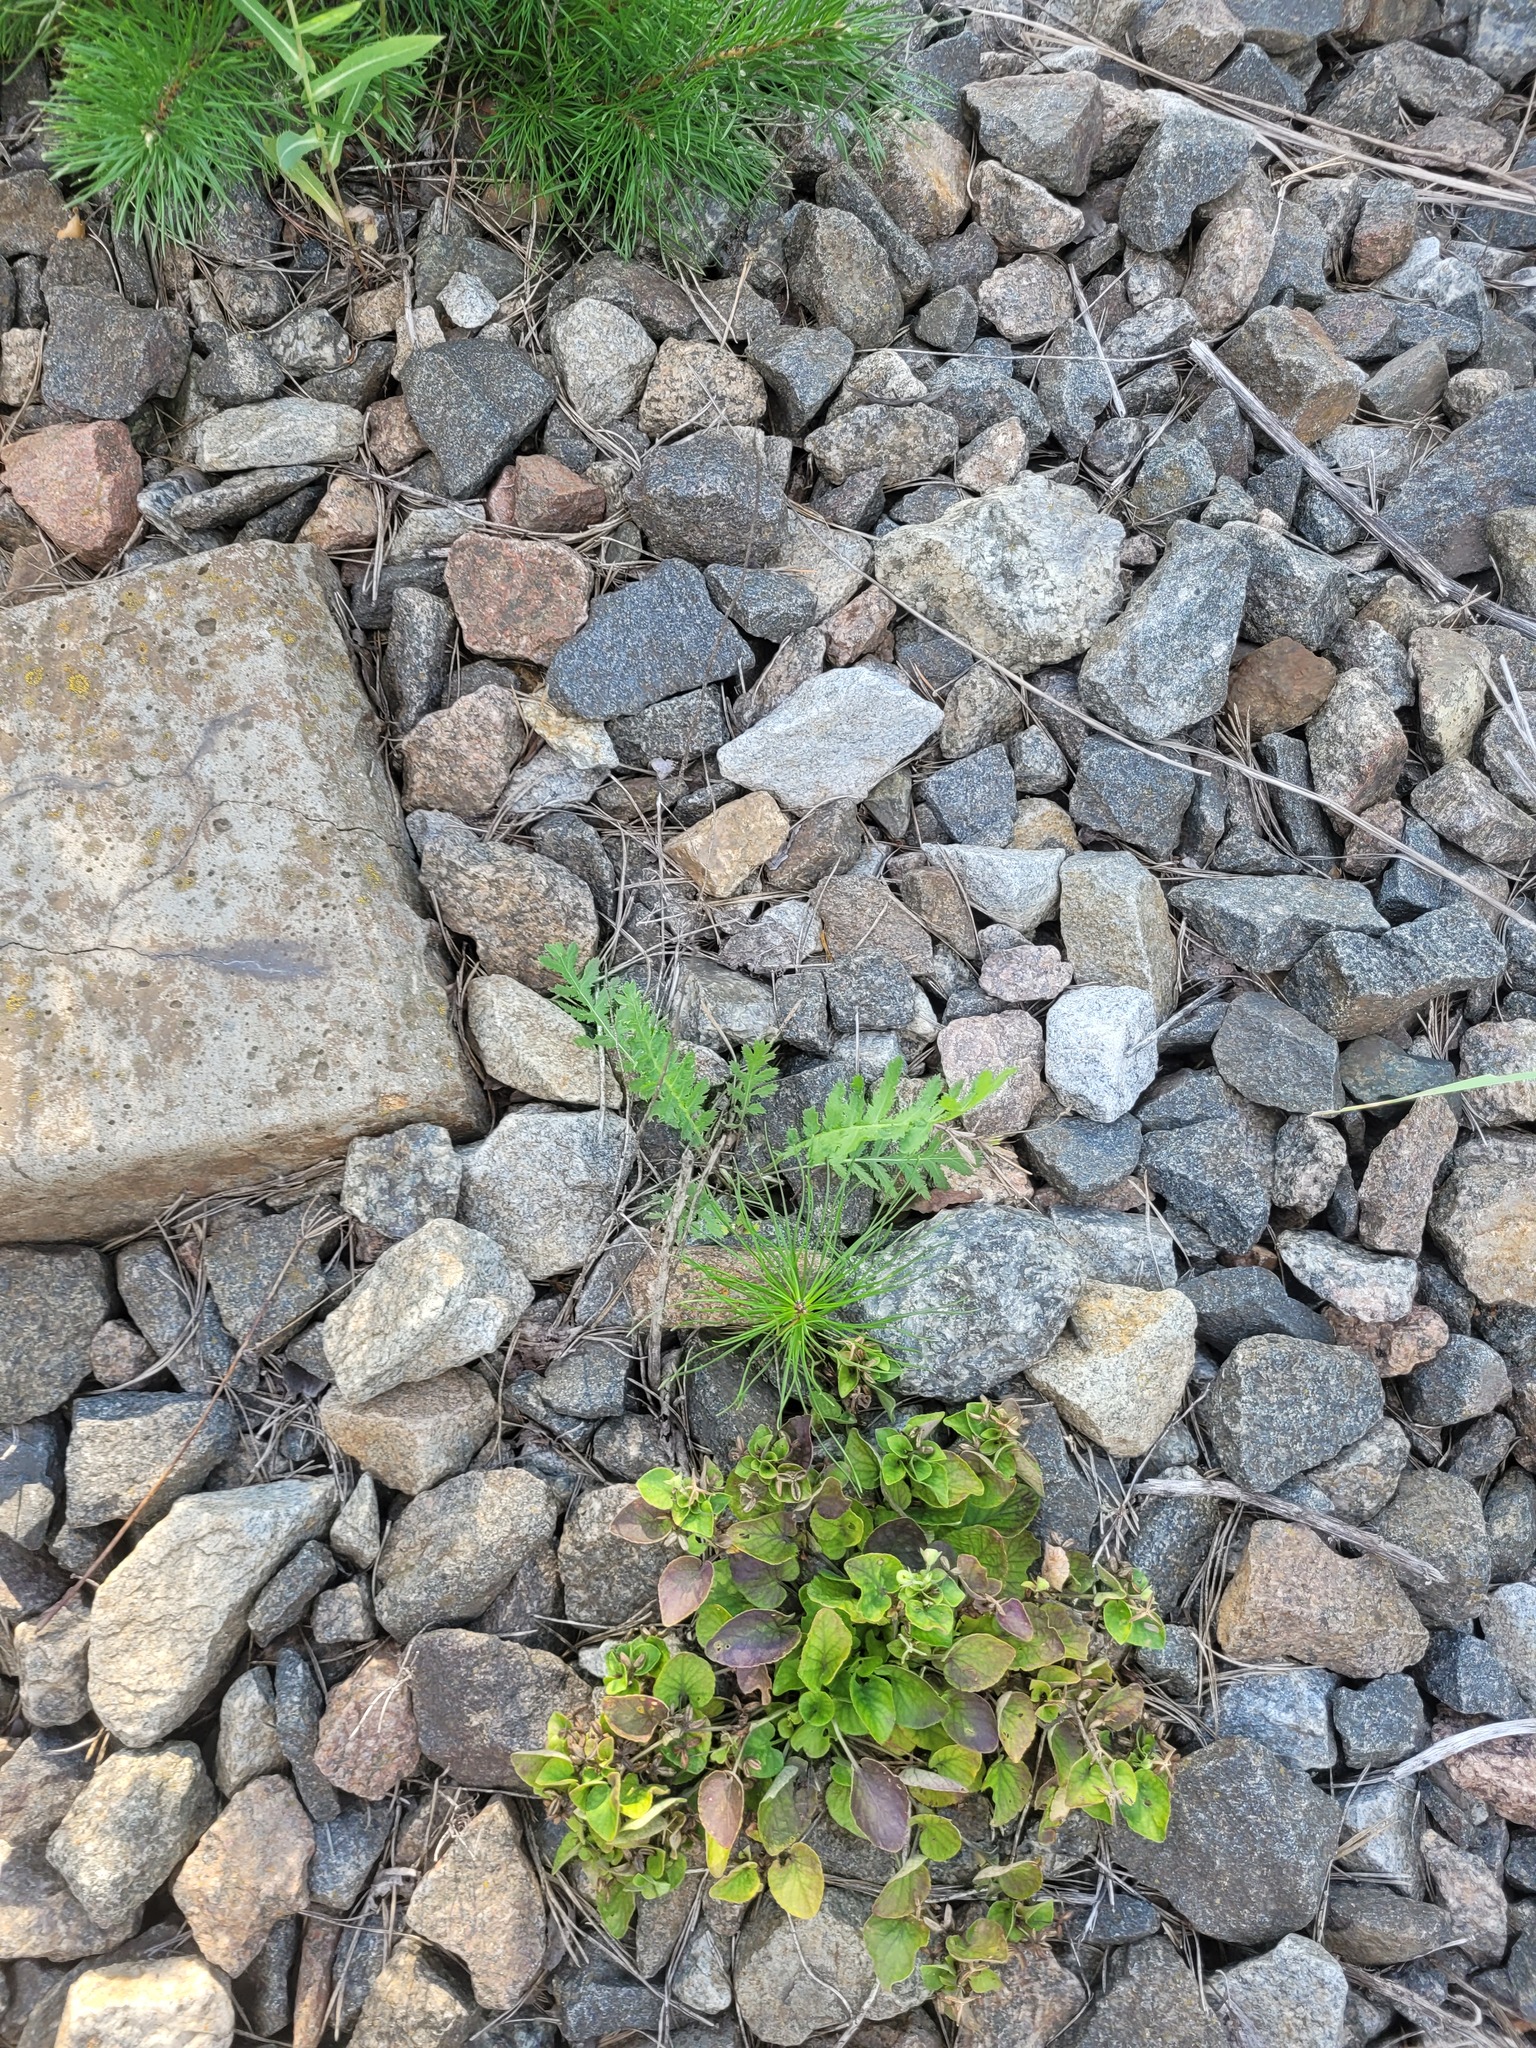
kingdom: Plantae
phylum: Tracheophyta
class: Magnoliopsida
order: Asterales
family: Asteraceae
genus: Tanacetum
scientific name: Tanacetum vulgare
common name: Common tansy
